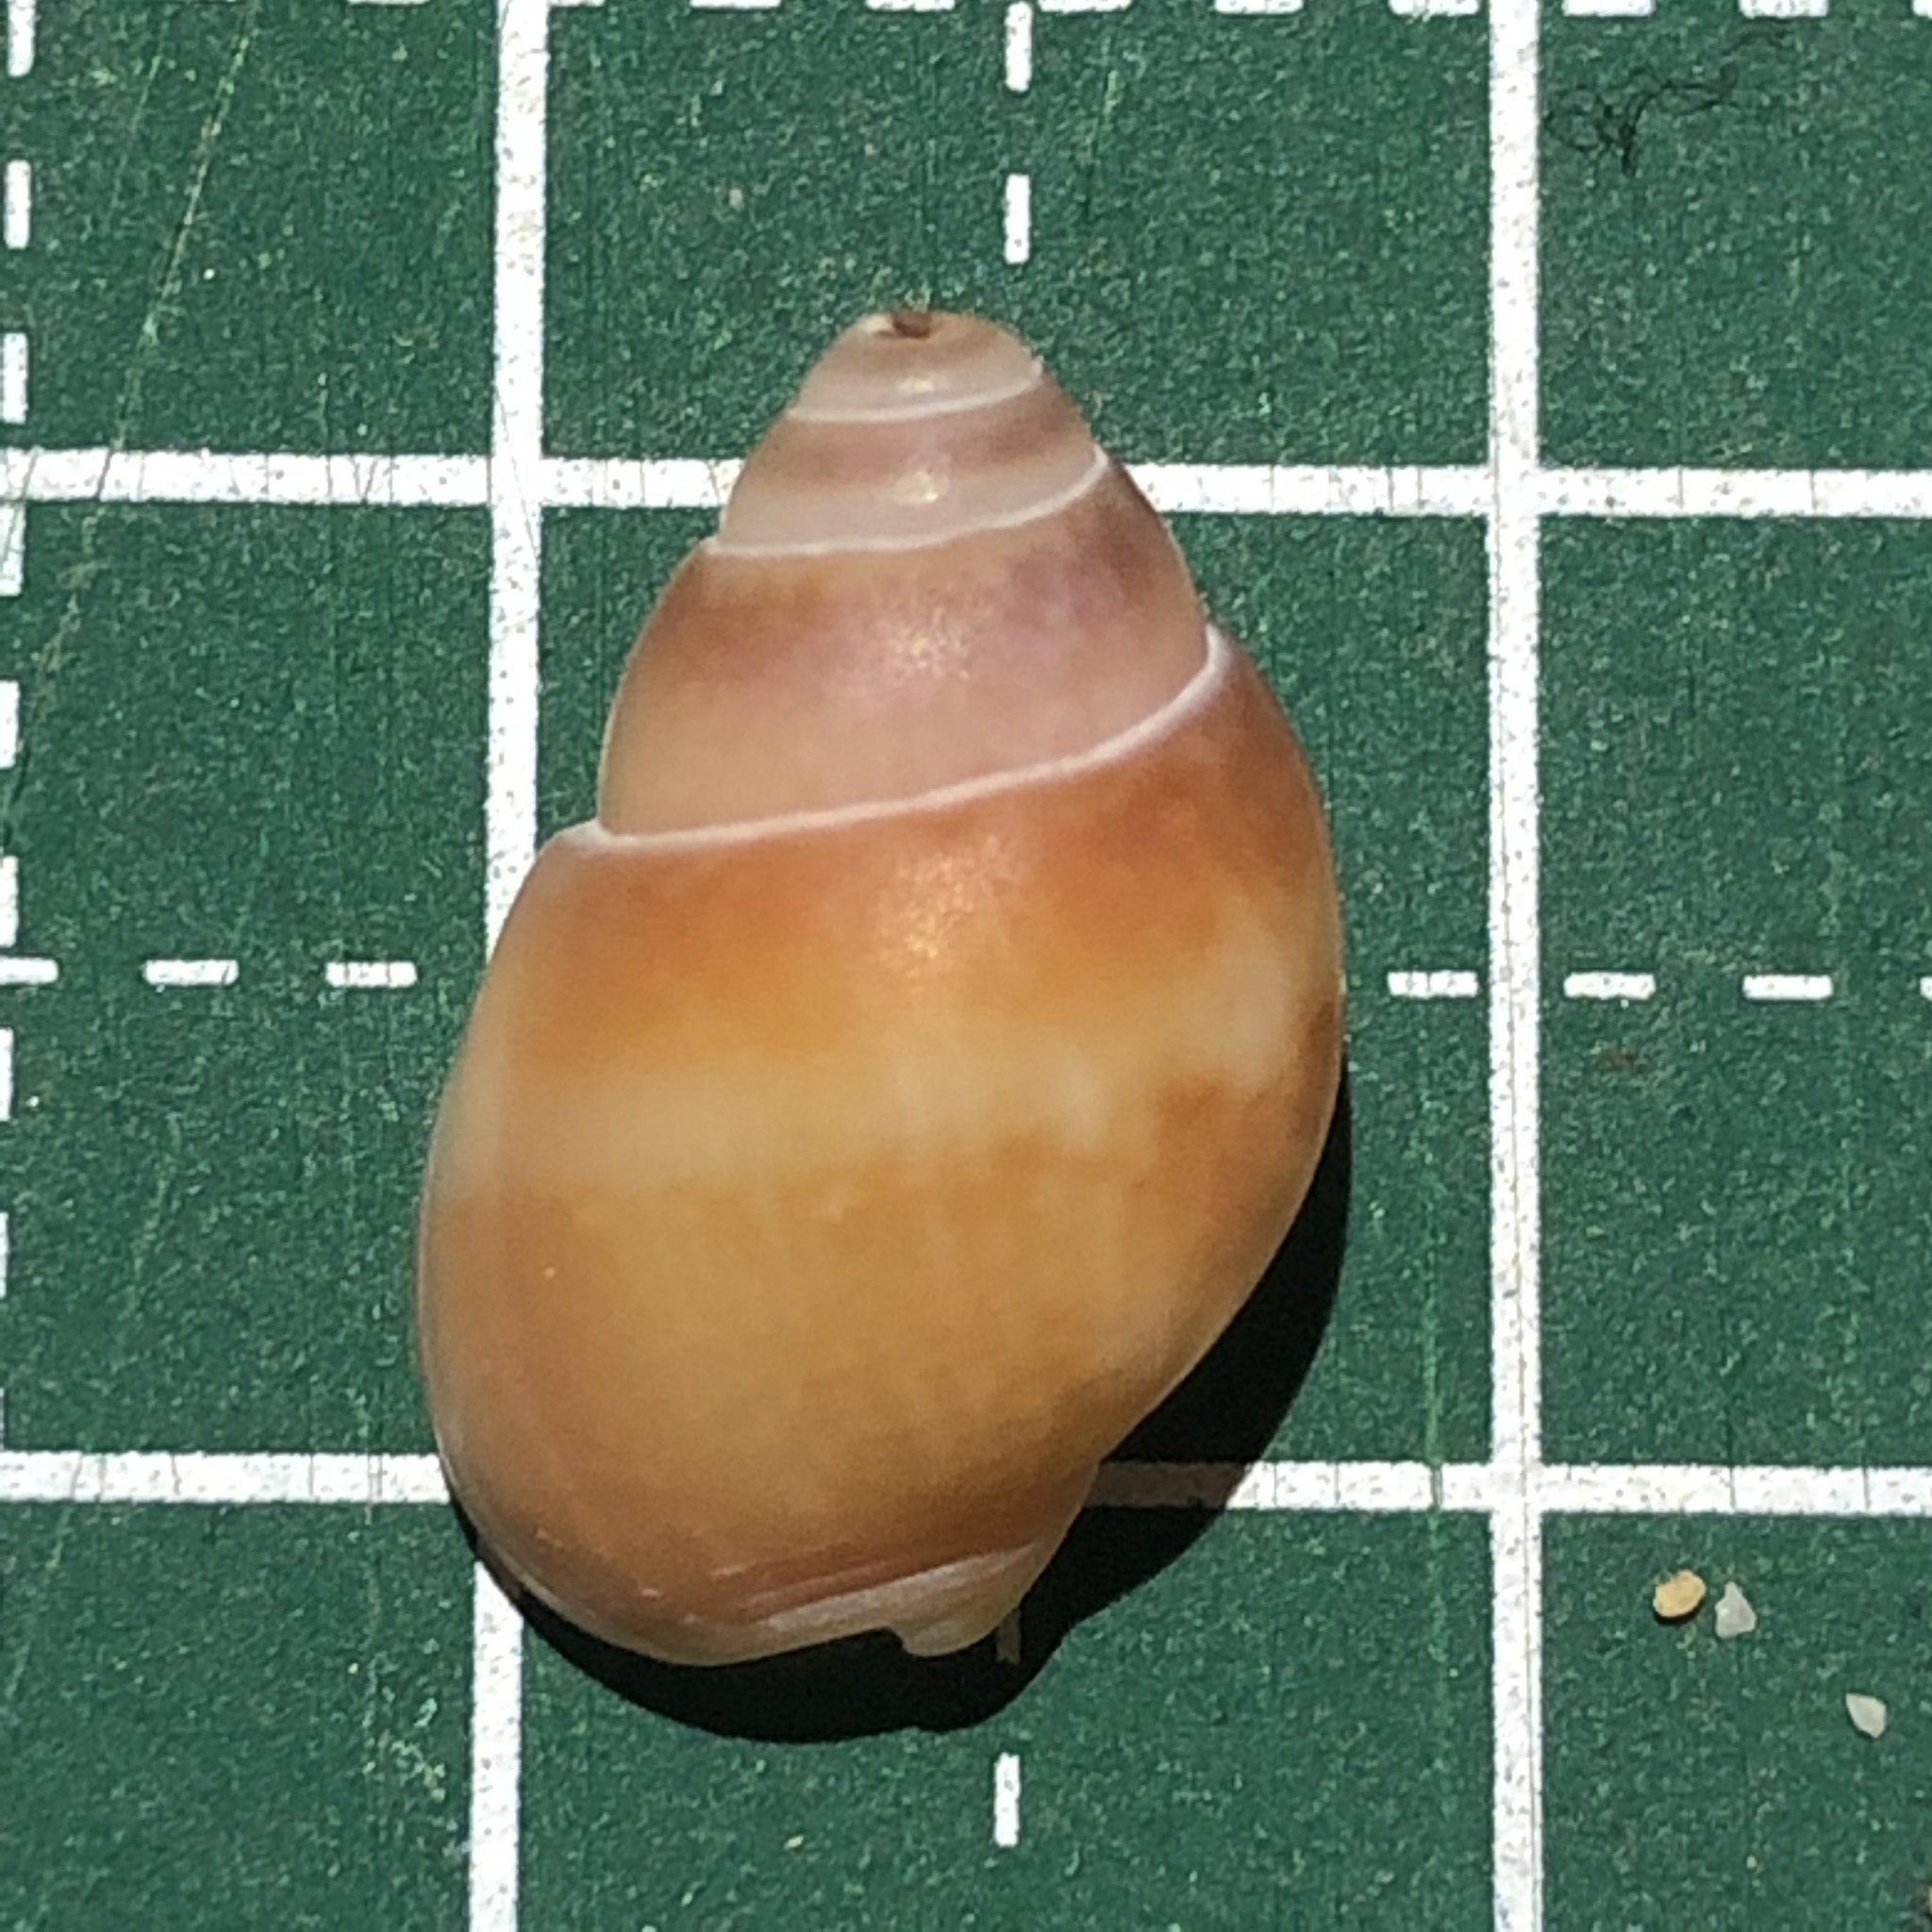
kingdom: Animalia
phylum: Mollusca
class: Gastropoda
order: Neogastropoda
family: Nassariidae
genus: Nassarius
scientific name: Nassarius reeveanus
